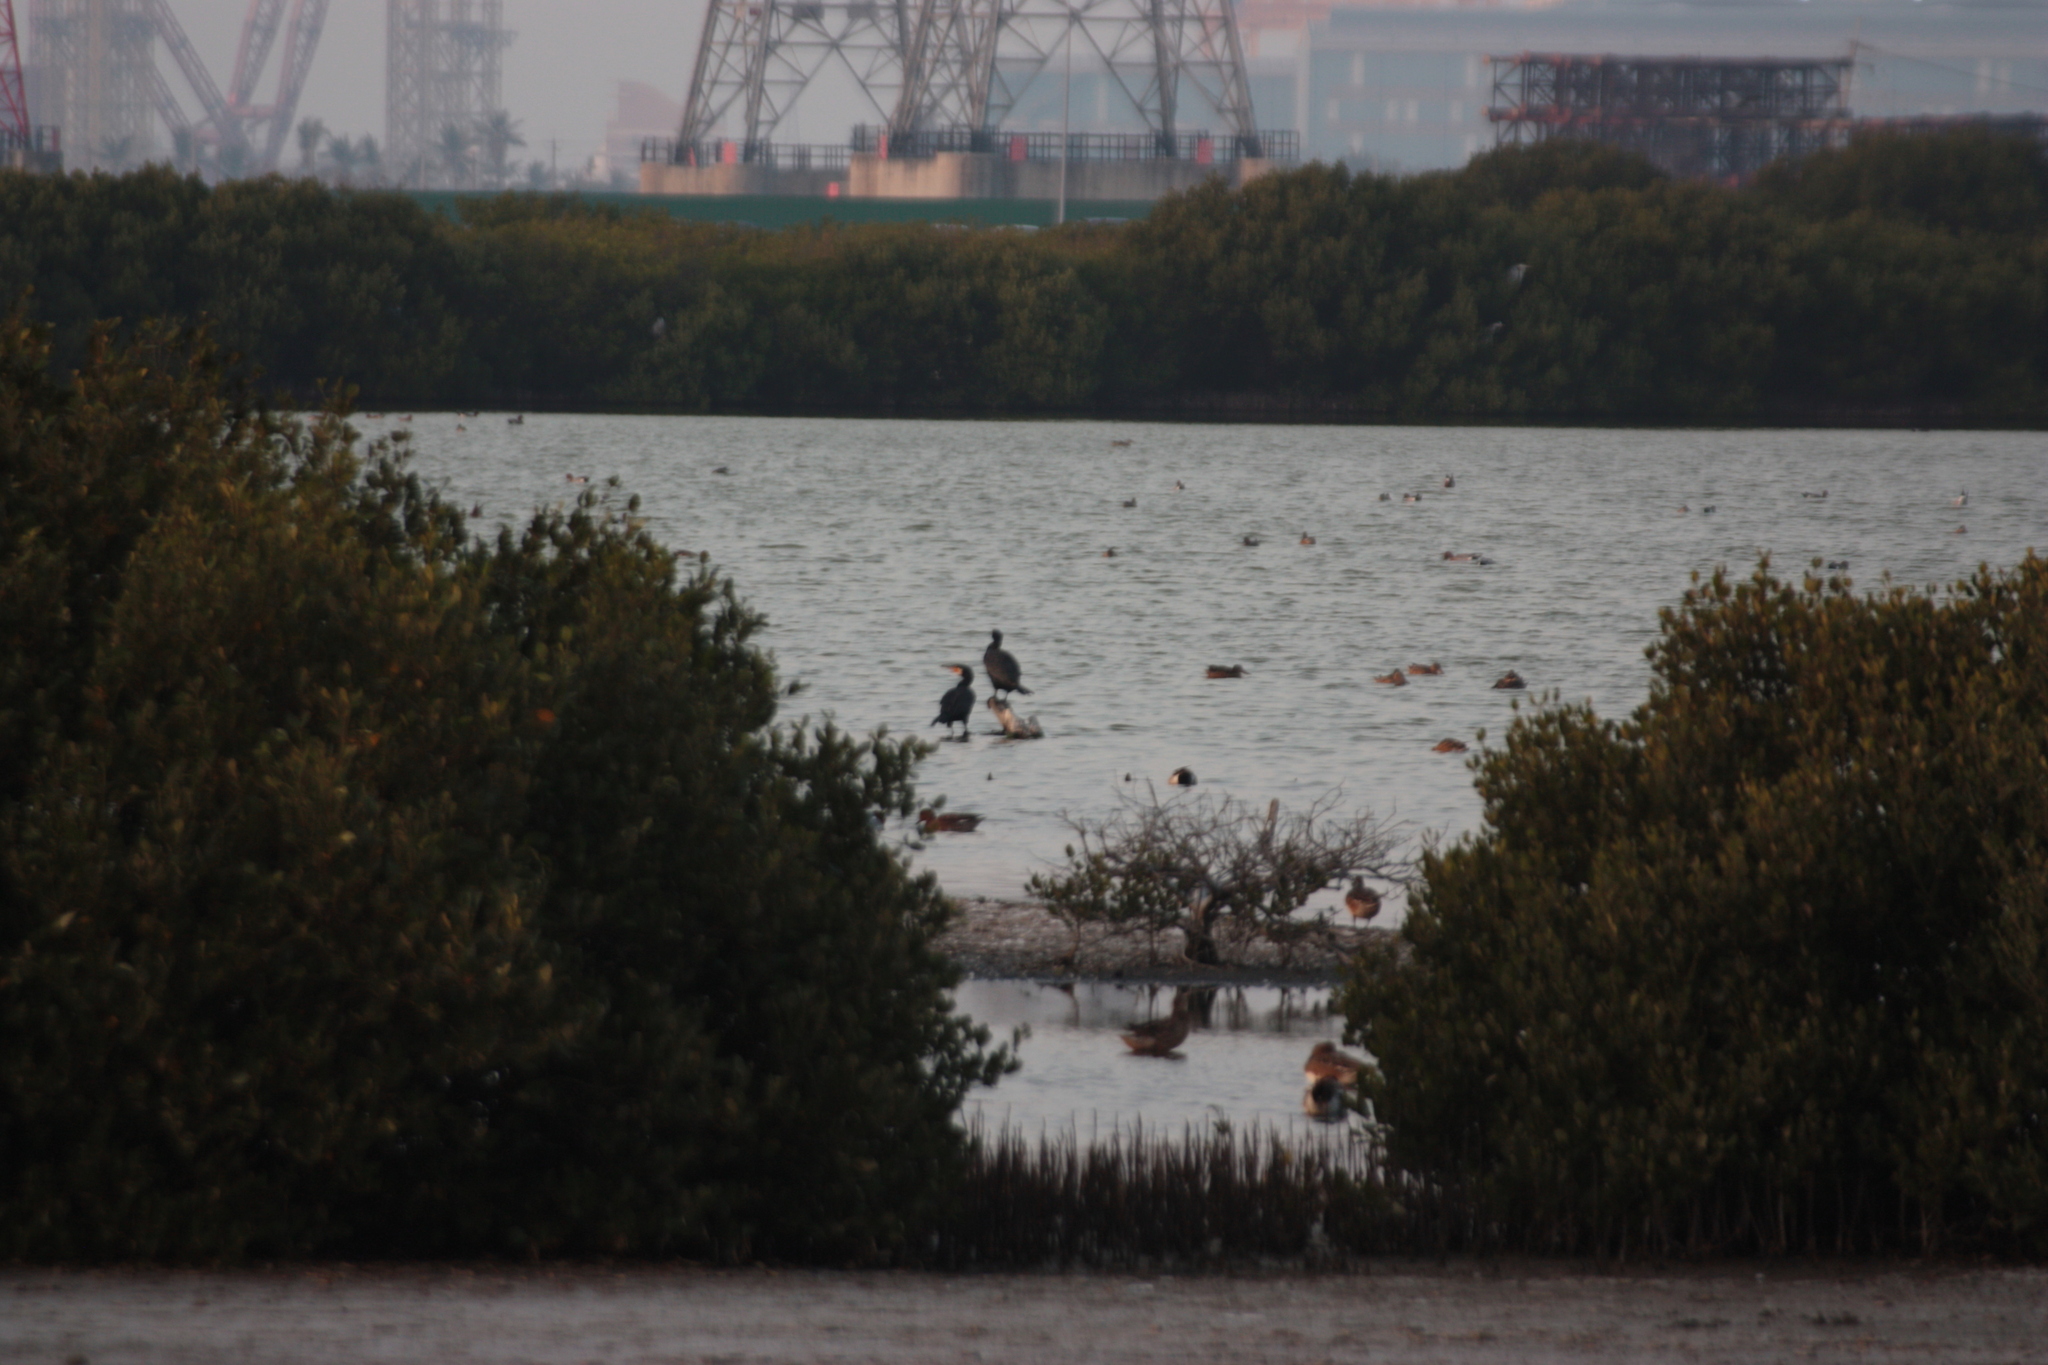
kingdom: Animalia
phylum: Chordata
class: Aves
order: Suliformes
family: Phalacrocoracidae
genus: Phalacrocorax
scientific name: Phalacrocorax carbo
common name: Great cormorant
